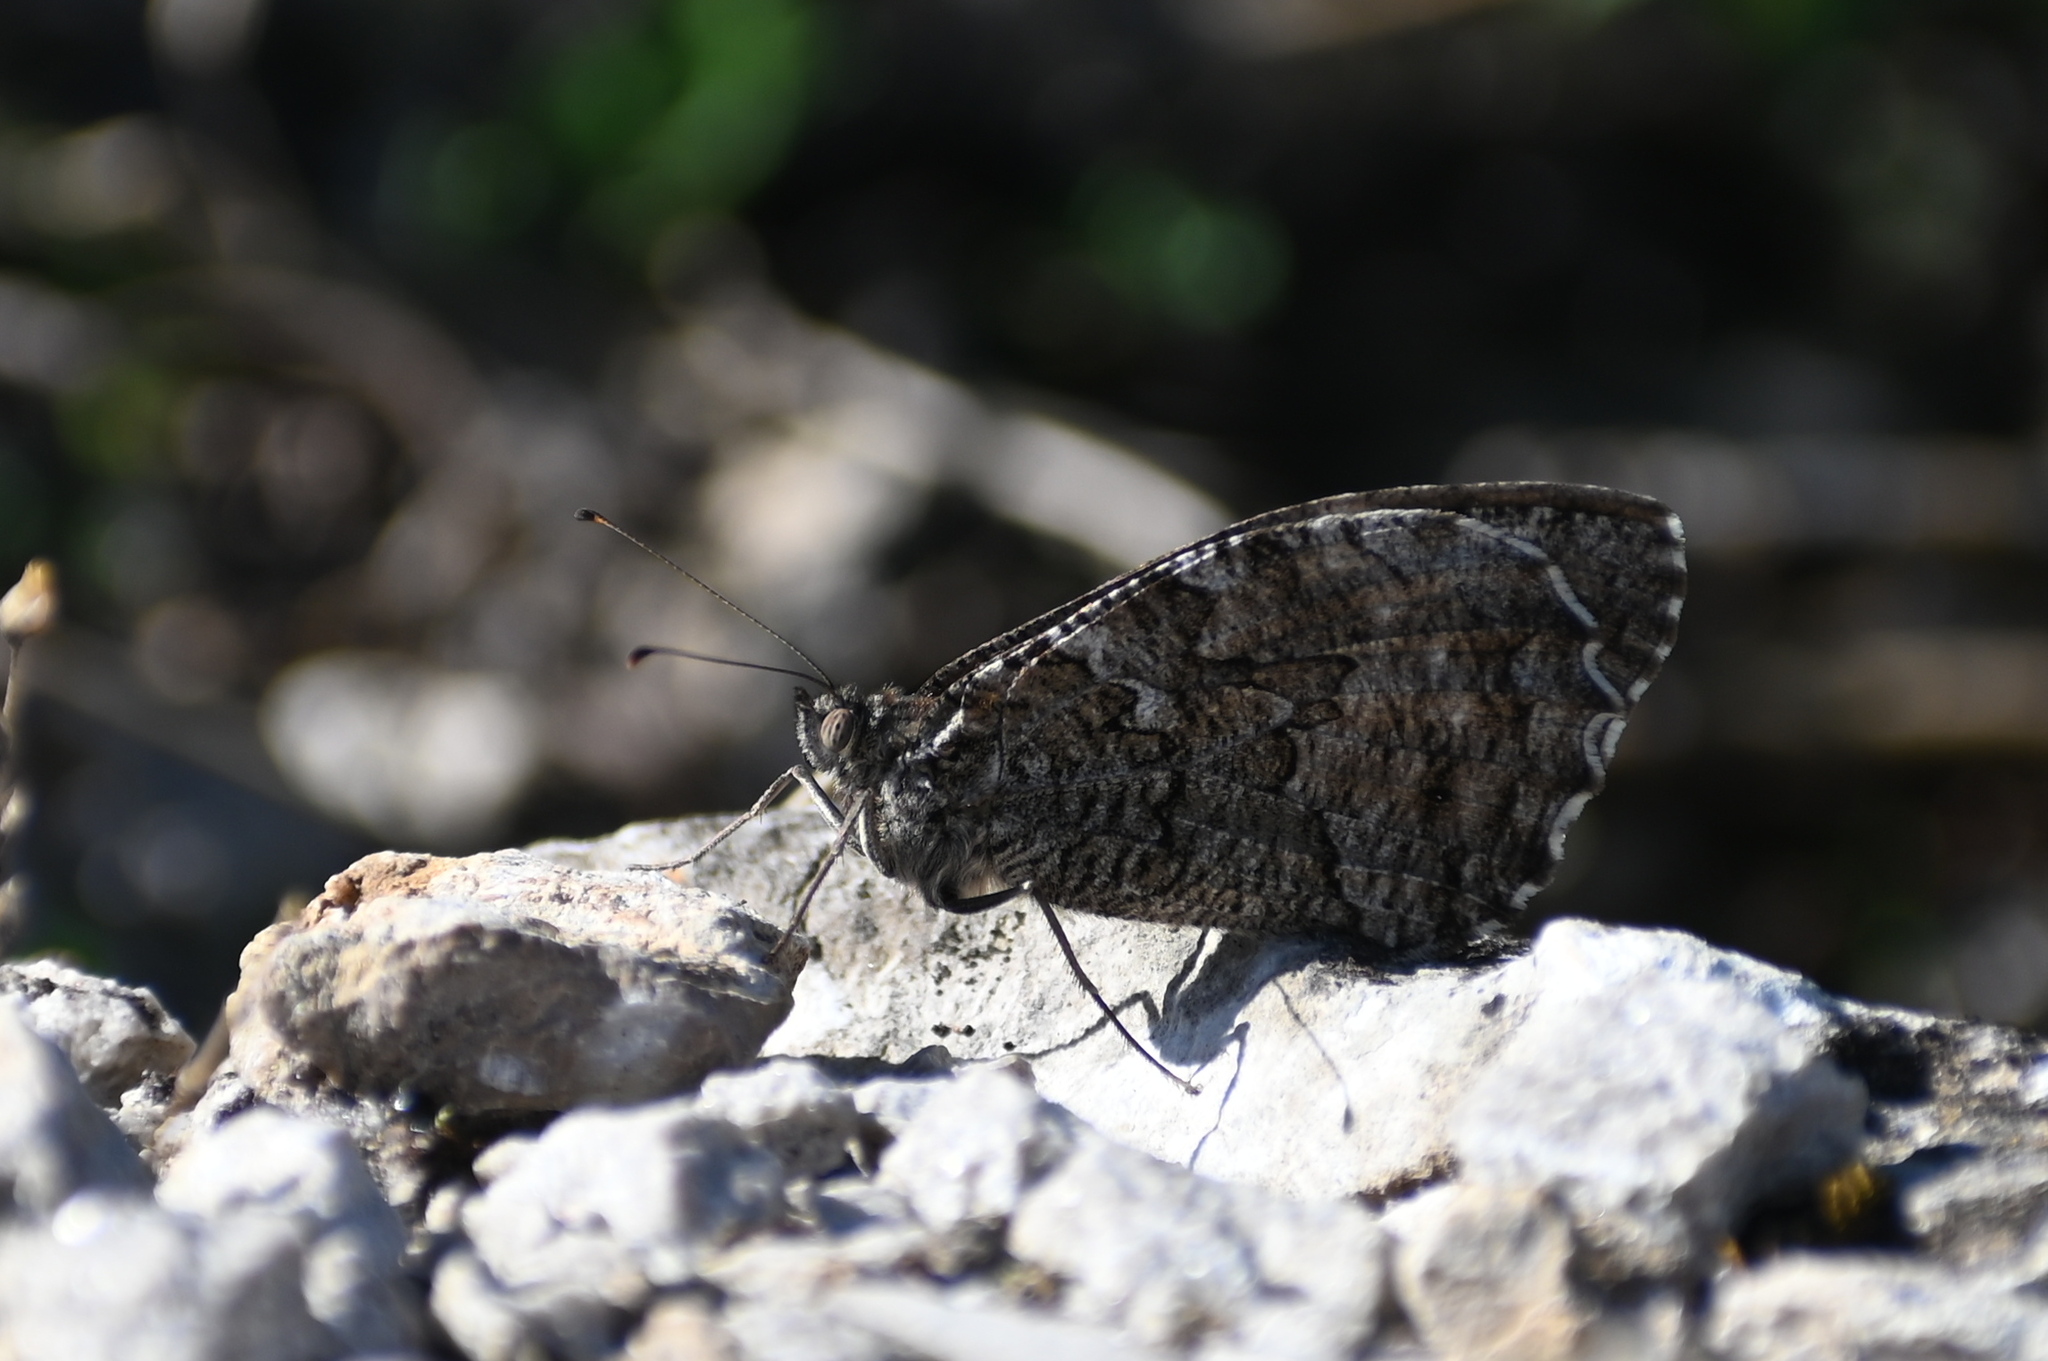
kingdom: Animalia
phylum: Arthropoda
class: Insecta
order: Lepidoptera
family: Nymphalidae
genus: Hipparchia
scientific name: Hipparchia semele
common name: Grayling
